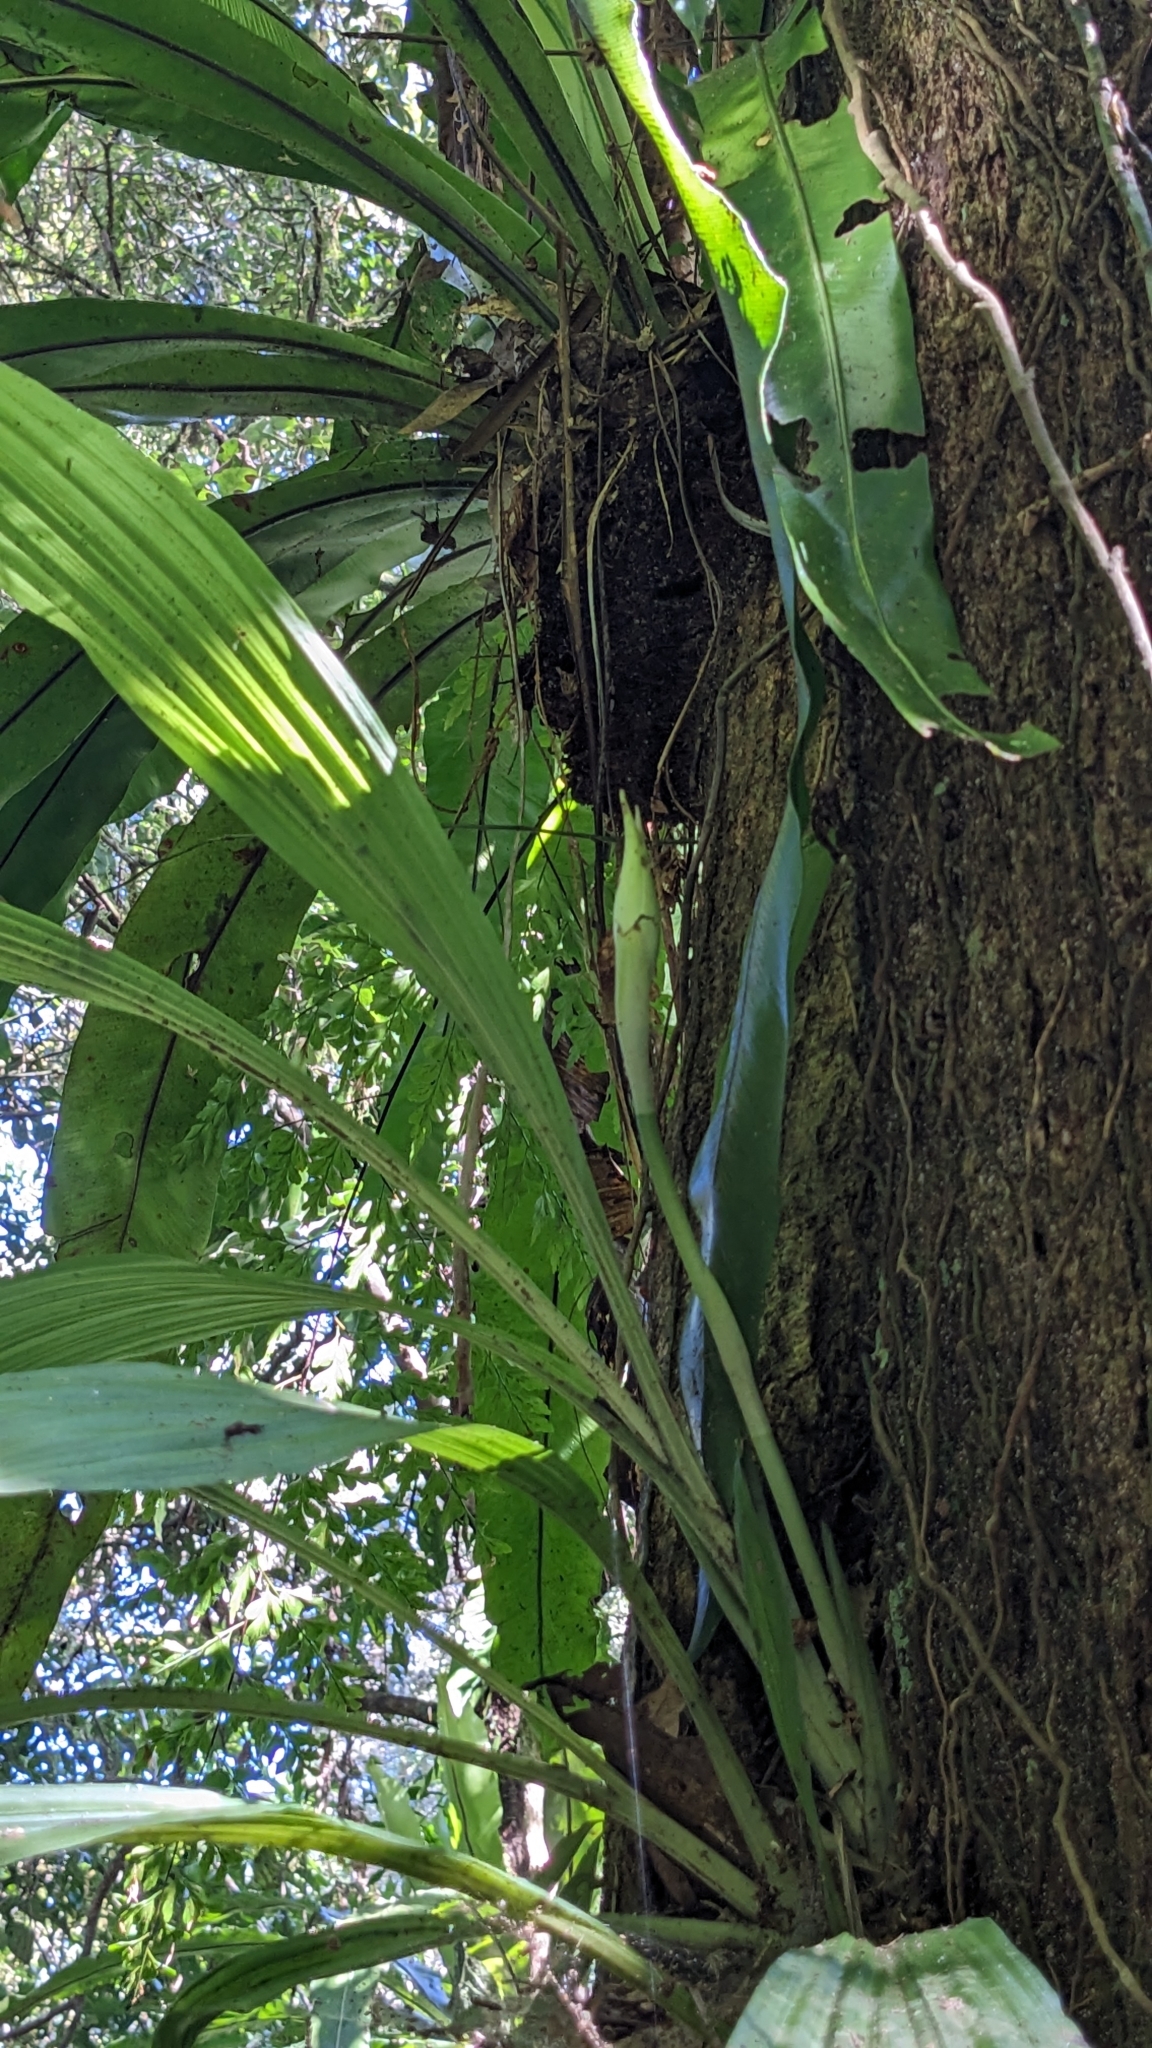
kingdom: Plantae
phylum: Tracheophyta
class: Liliopsida
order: Asparagales
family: Orchidaceae
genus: Calanthe
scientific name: Calanthe lyroglossa
